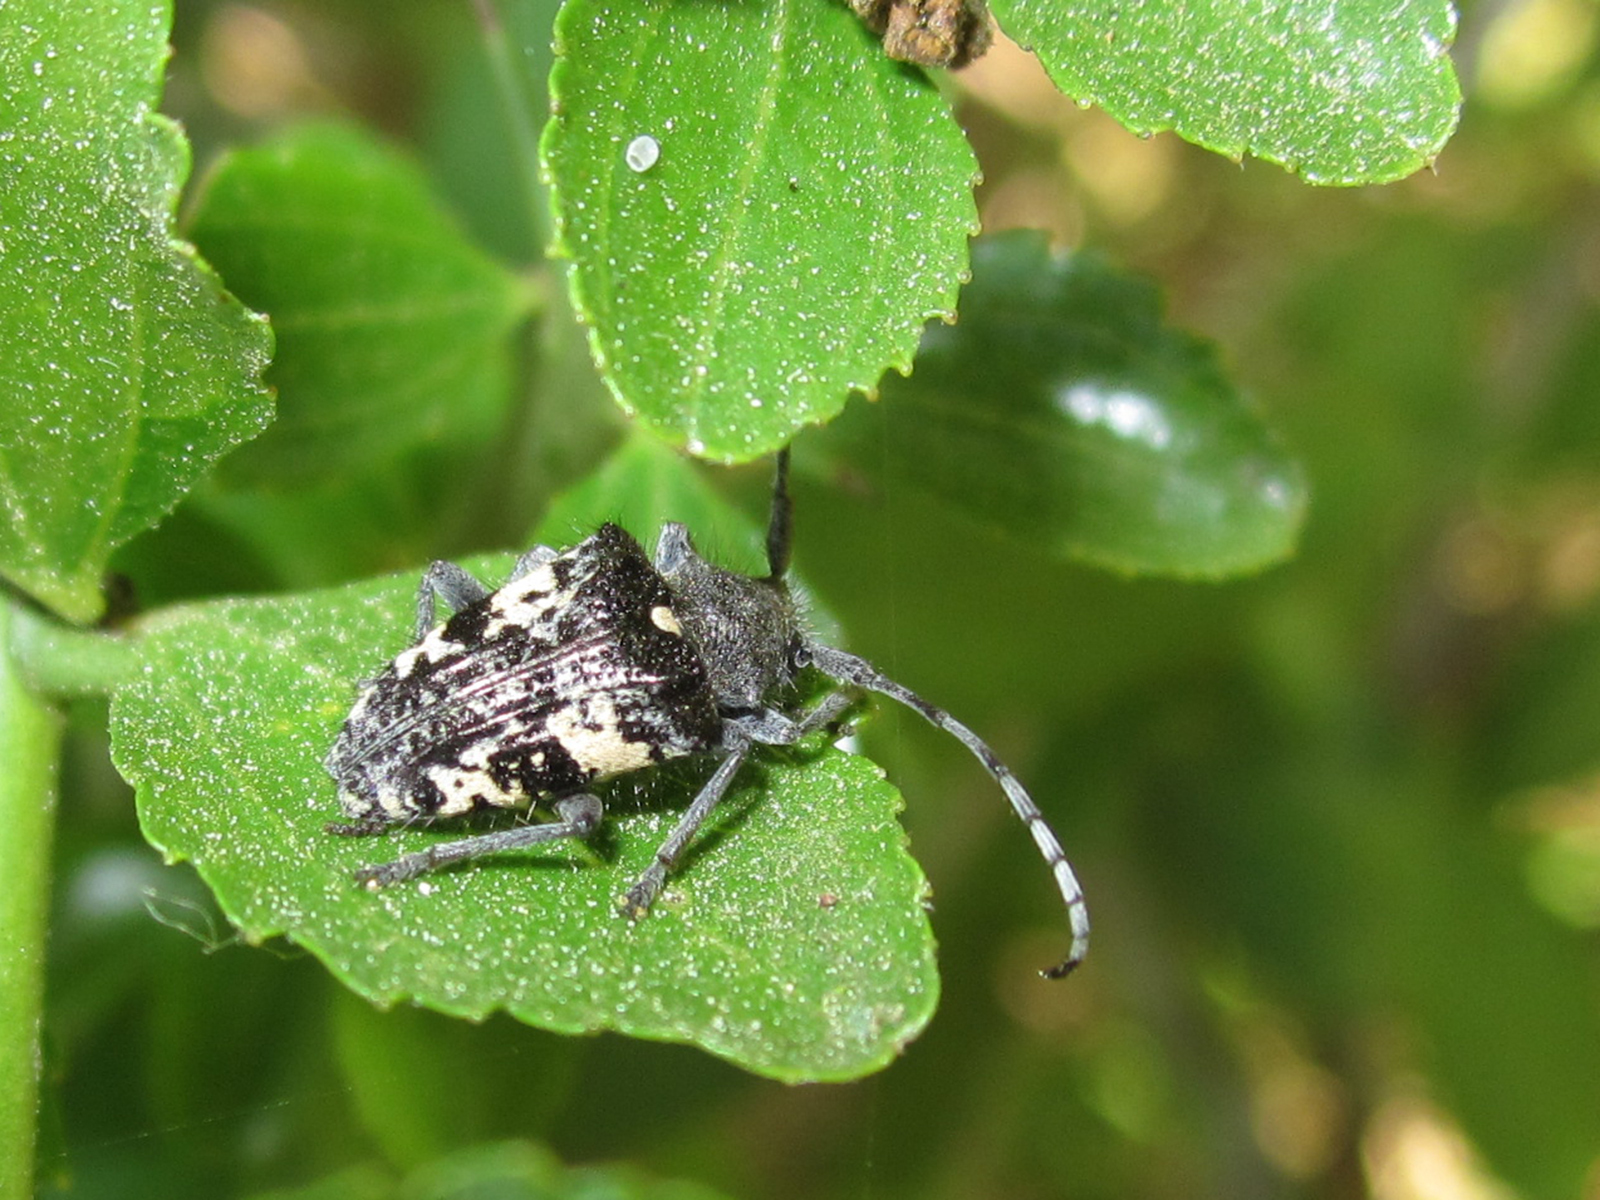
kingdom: Animalia
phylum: Arthropoda
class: Insecta
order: Coleoptera
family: Cerambycidae
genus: Brachychilus
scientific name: Brachychilus scutellaris
